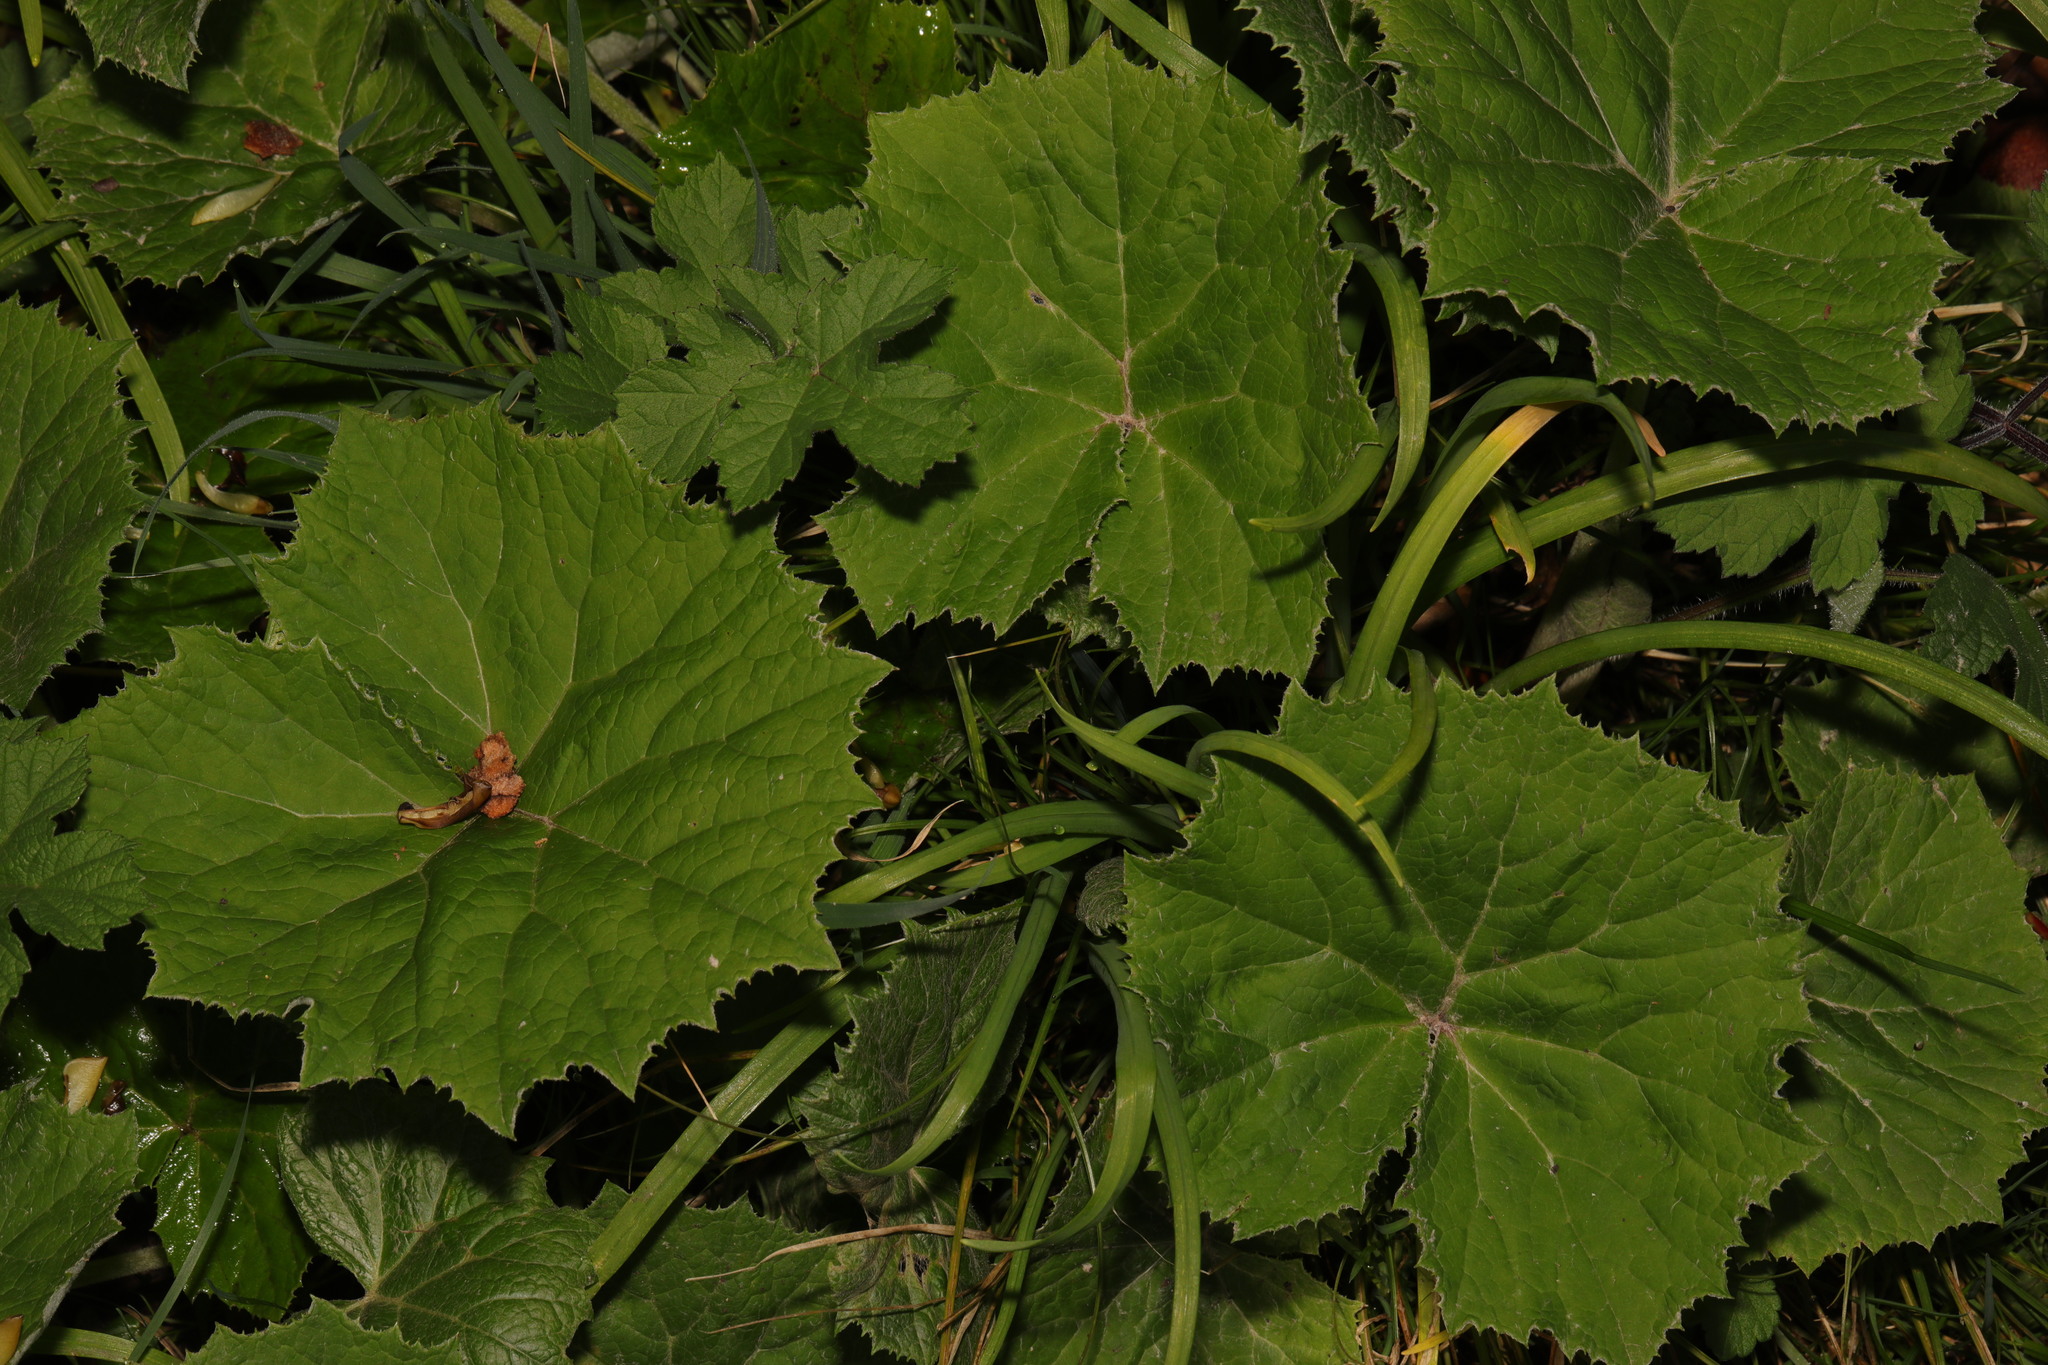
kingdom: Plantae
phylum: Tracheophyta
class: Magnoliopsida
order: Asterales
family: Asteraceae
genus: Petasites
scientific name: Petasites albus
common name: White butterbur
